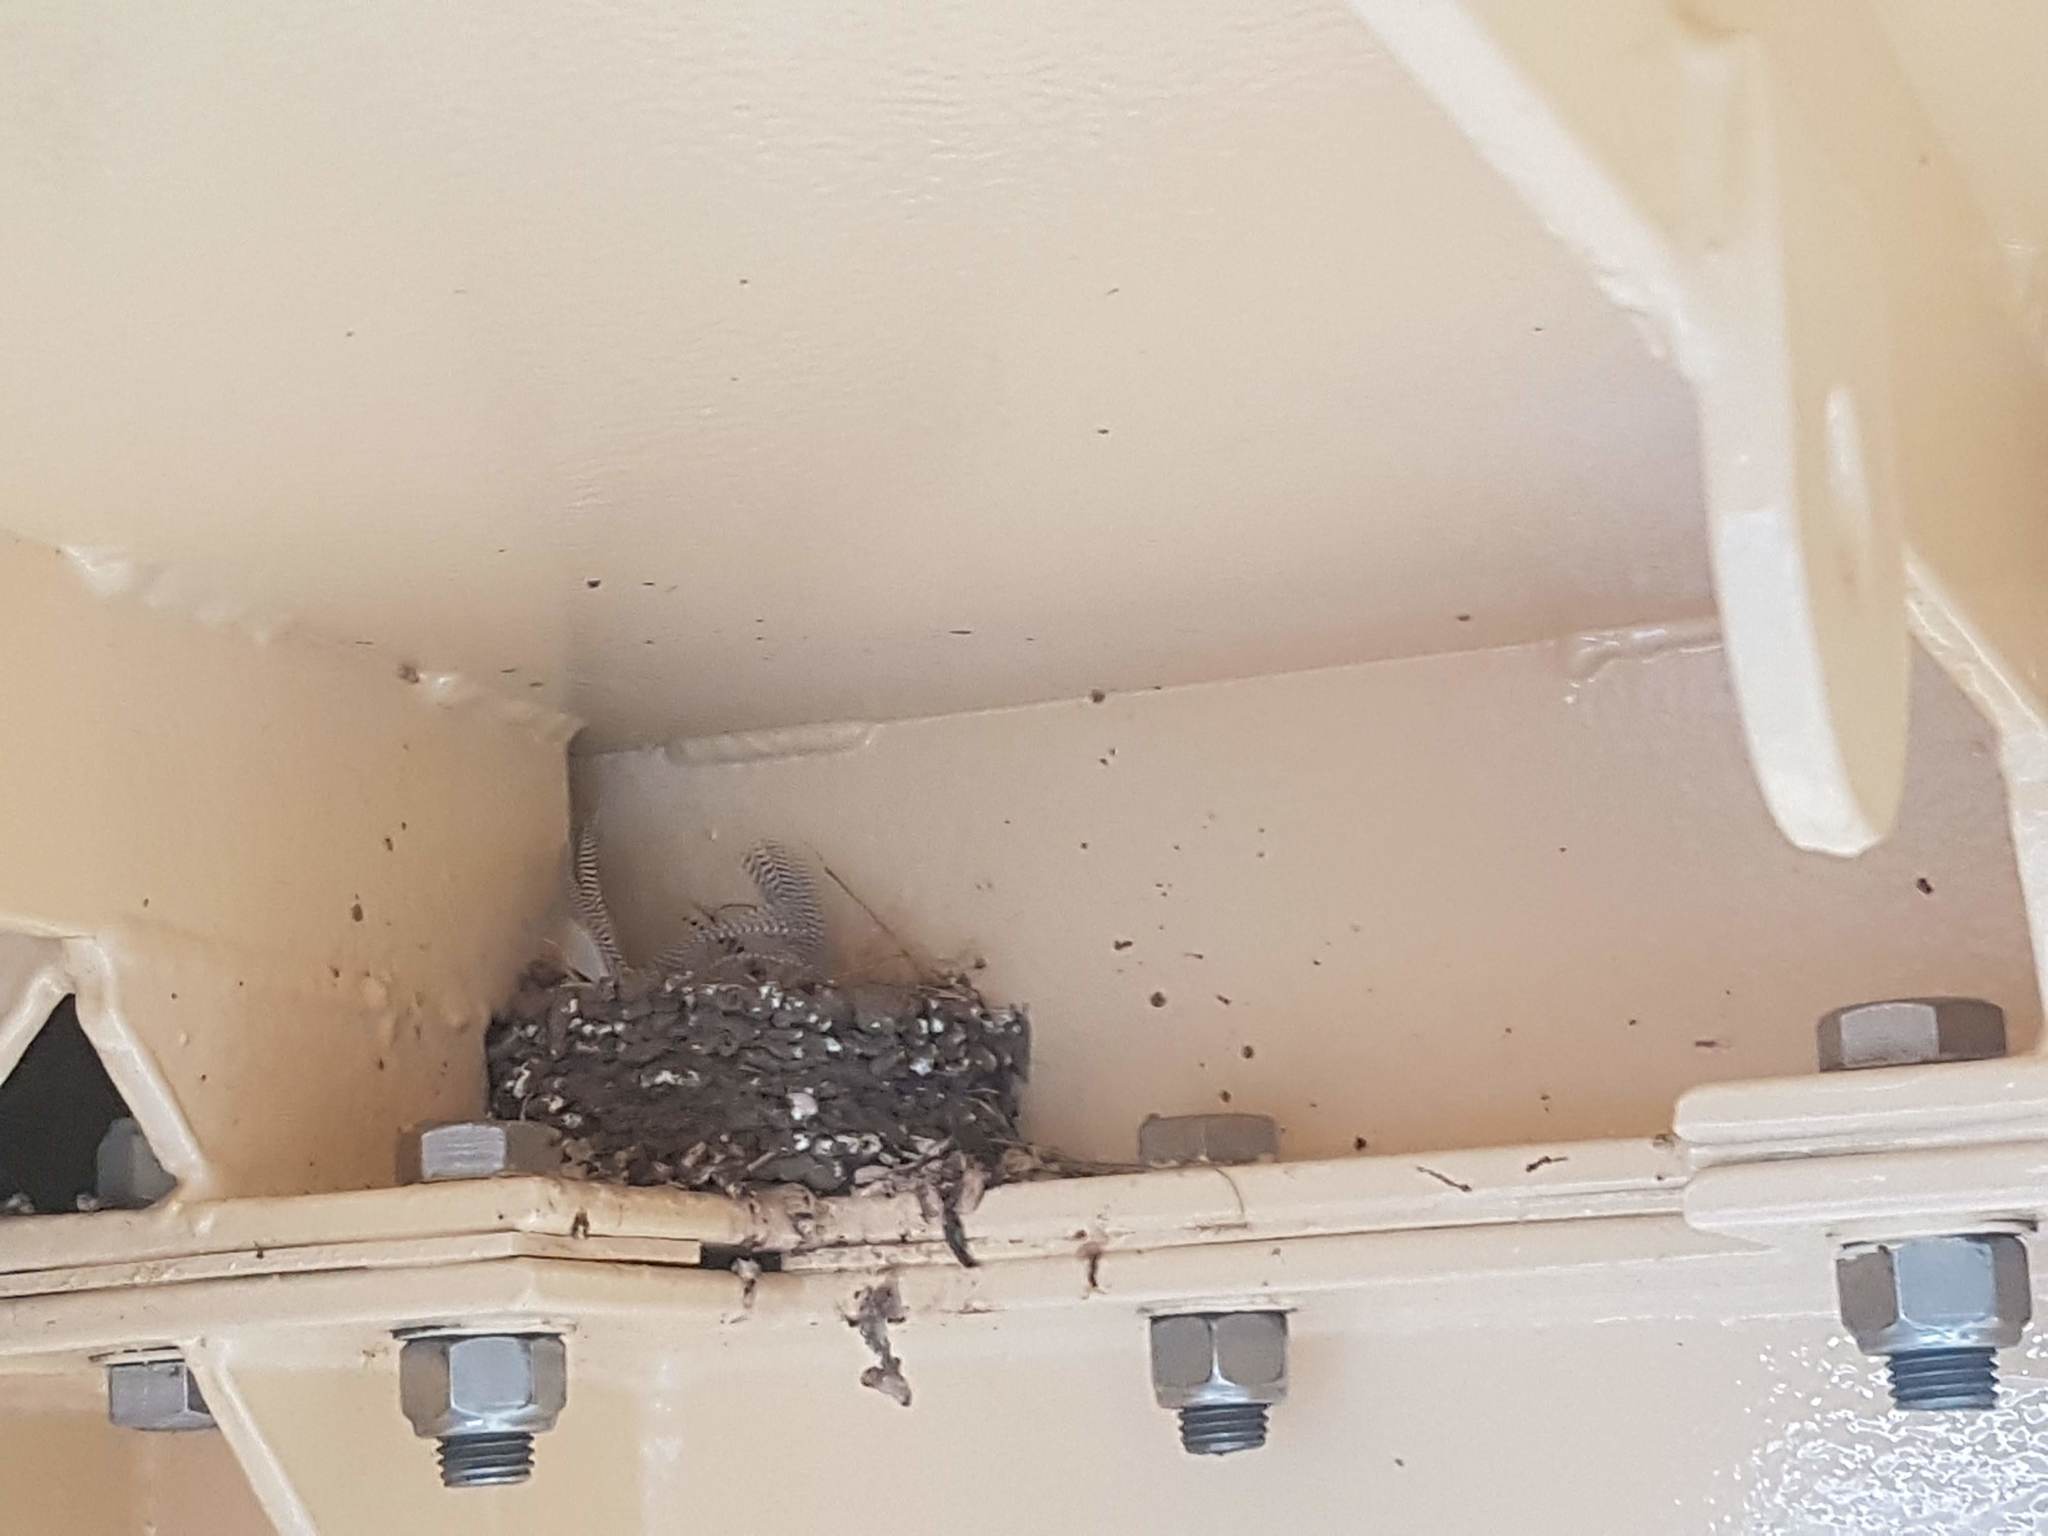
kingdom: Animalia
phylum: Chordata
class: Aves
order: Passeriformes
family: Hirundinidae
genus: Hirundo
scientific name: Hirundo neoxena
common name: Welcome swallow
